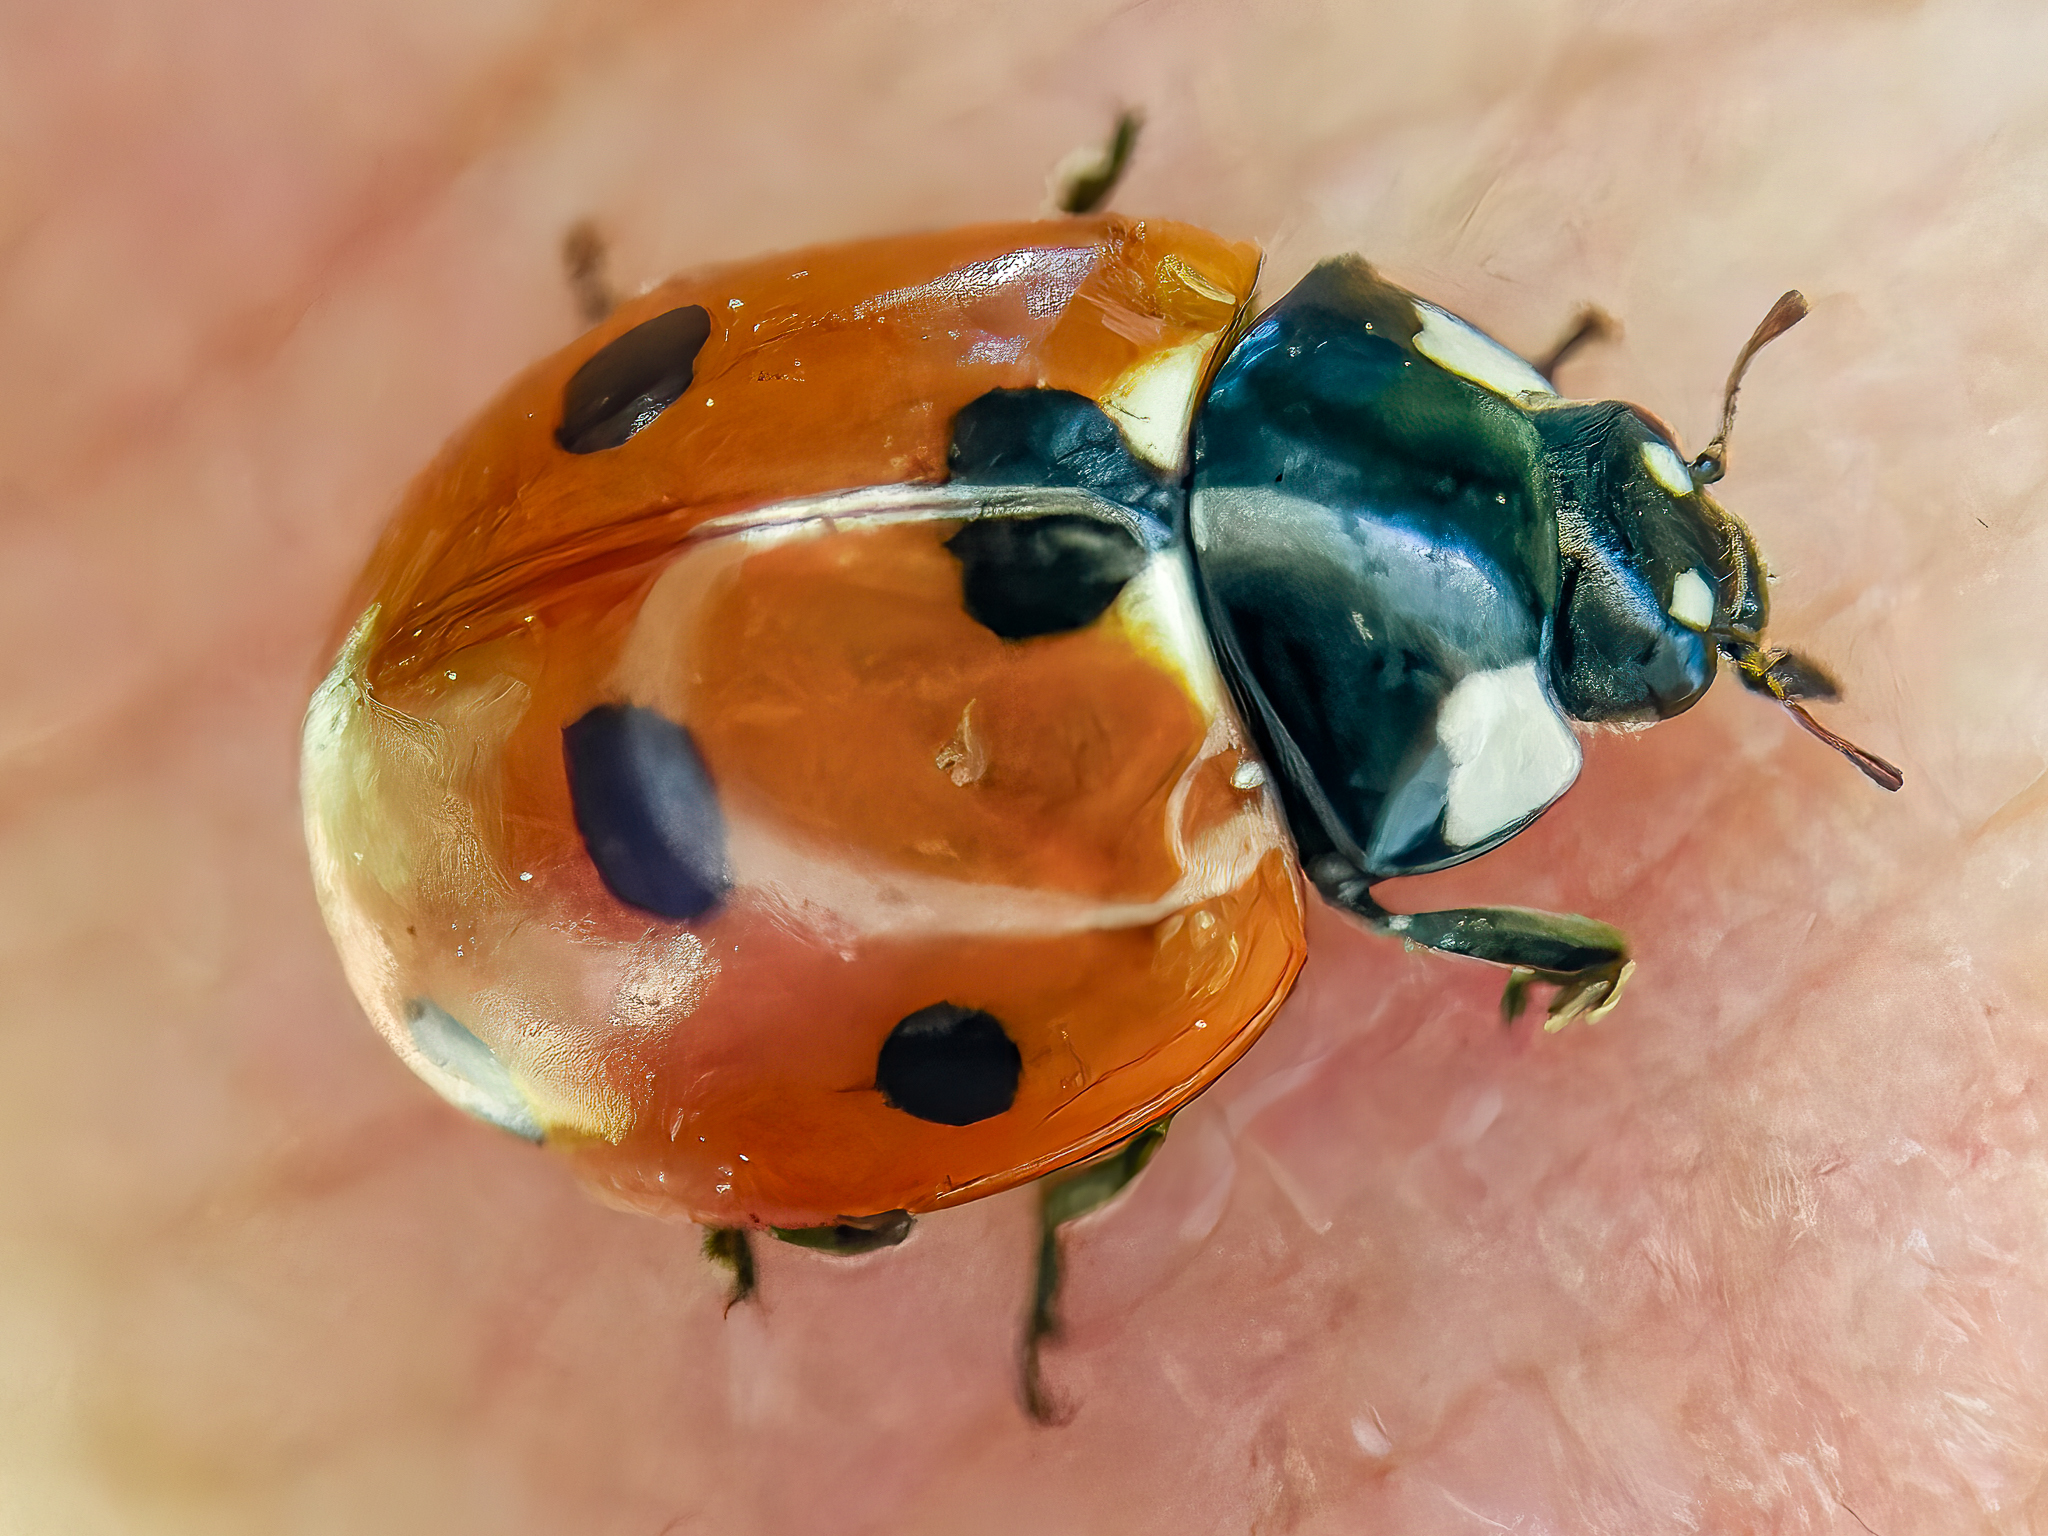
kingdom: Animalia
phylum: Arthropoda
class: Insecta
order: Coleoptera
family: Coccinellidae
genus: Coccinella
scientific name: Coccinella septempunctata
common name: Sevenspotted lady beetle
